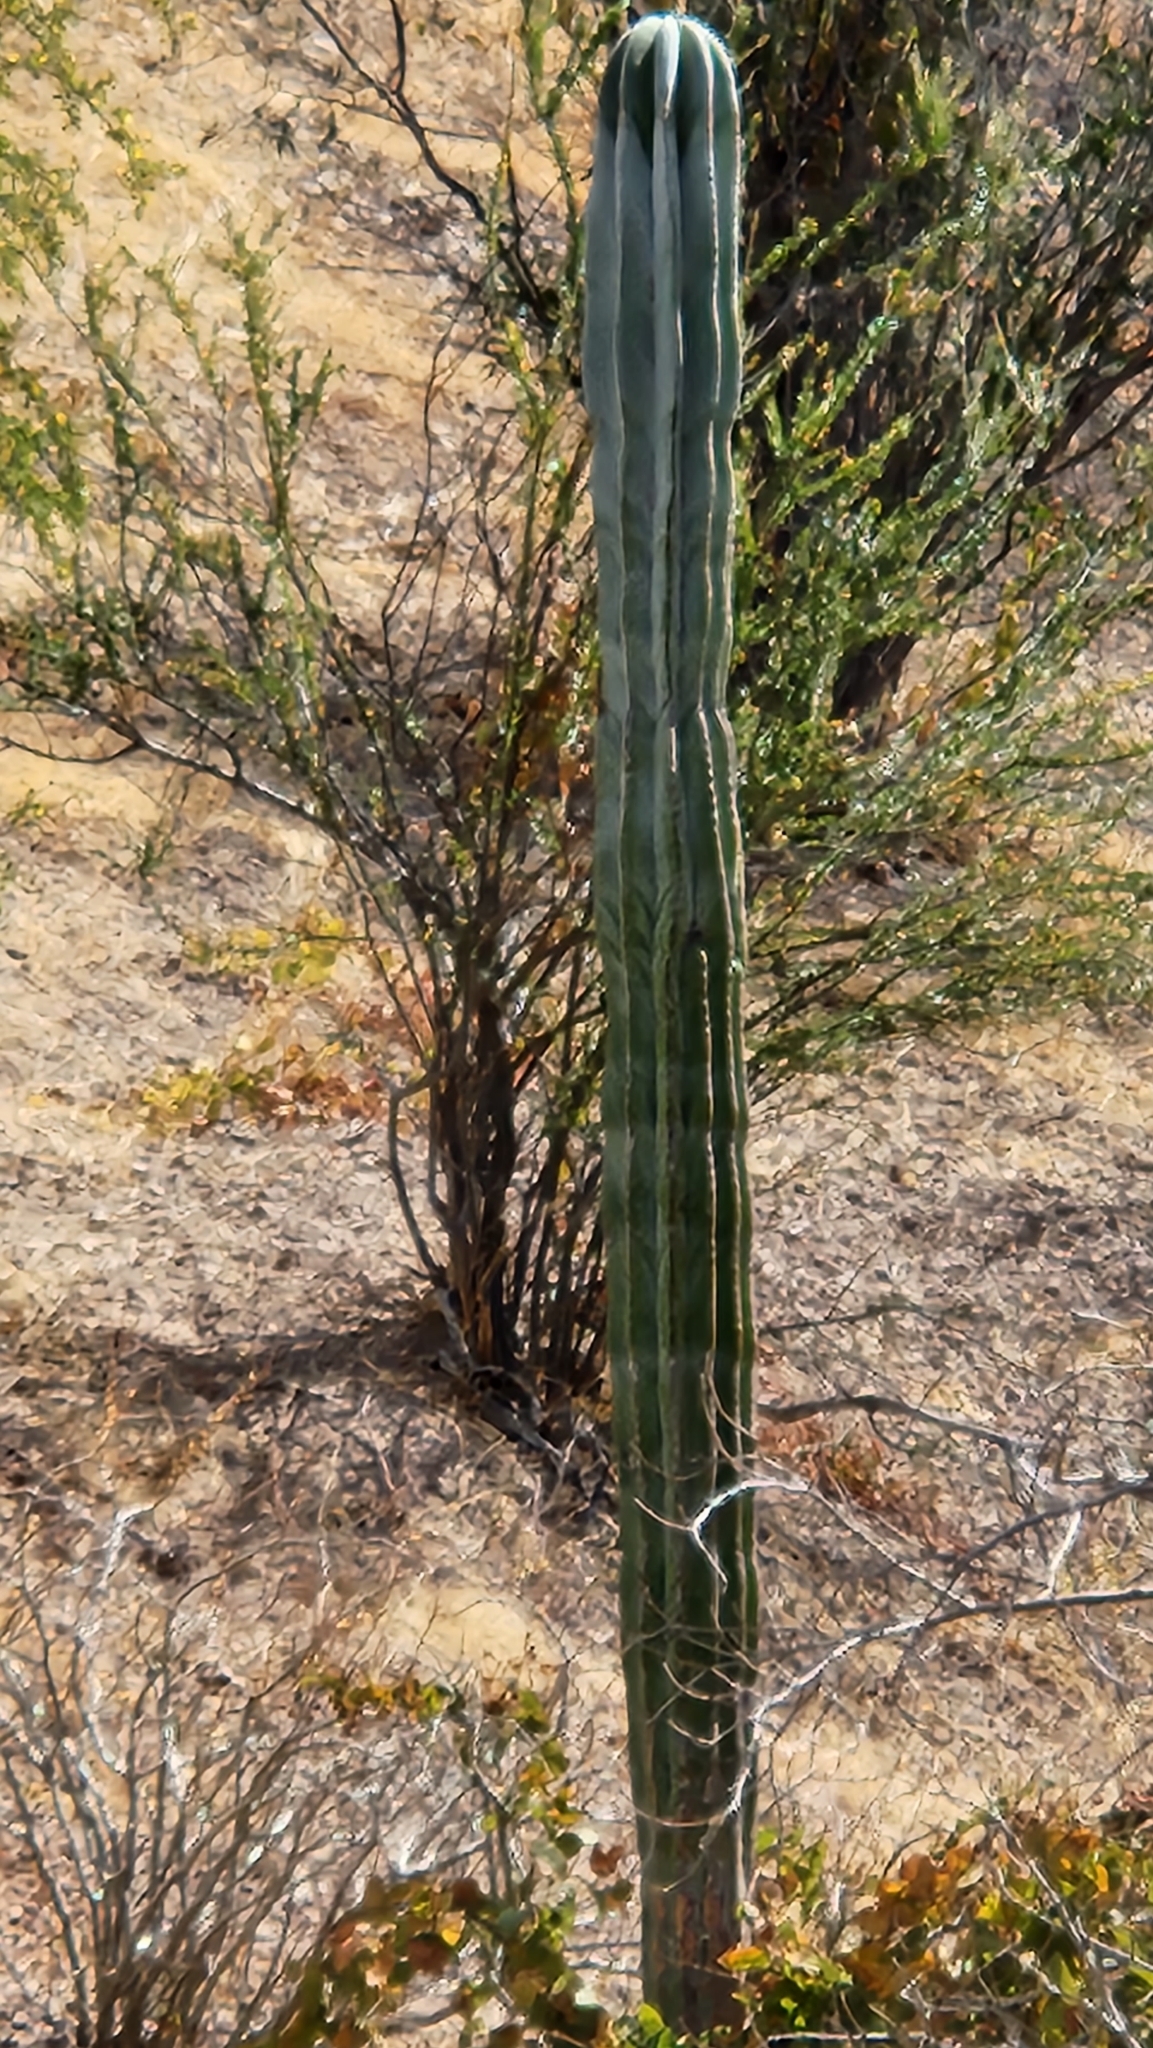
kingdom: Plantae
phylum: Tracheophyta
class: Magnoliopsida
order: Caryophyllales
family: Cactaceae
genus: Pachycereus
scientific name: Pachycereus pringlei
